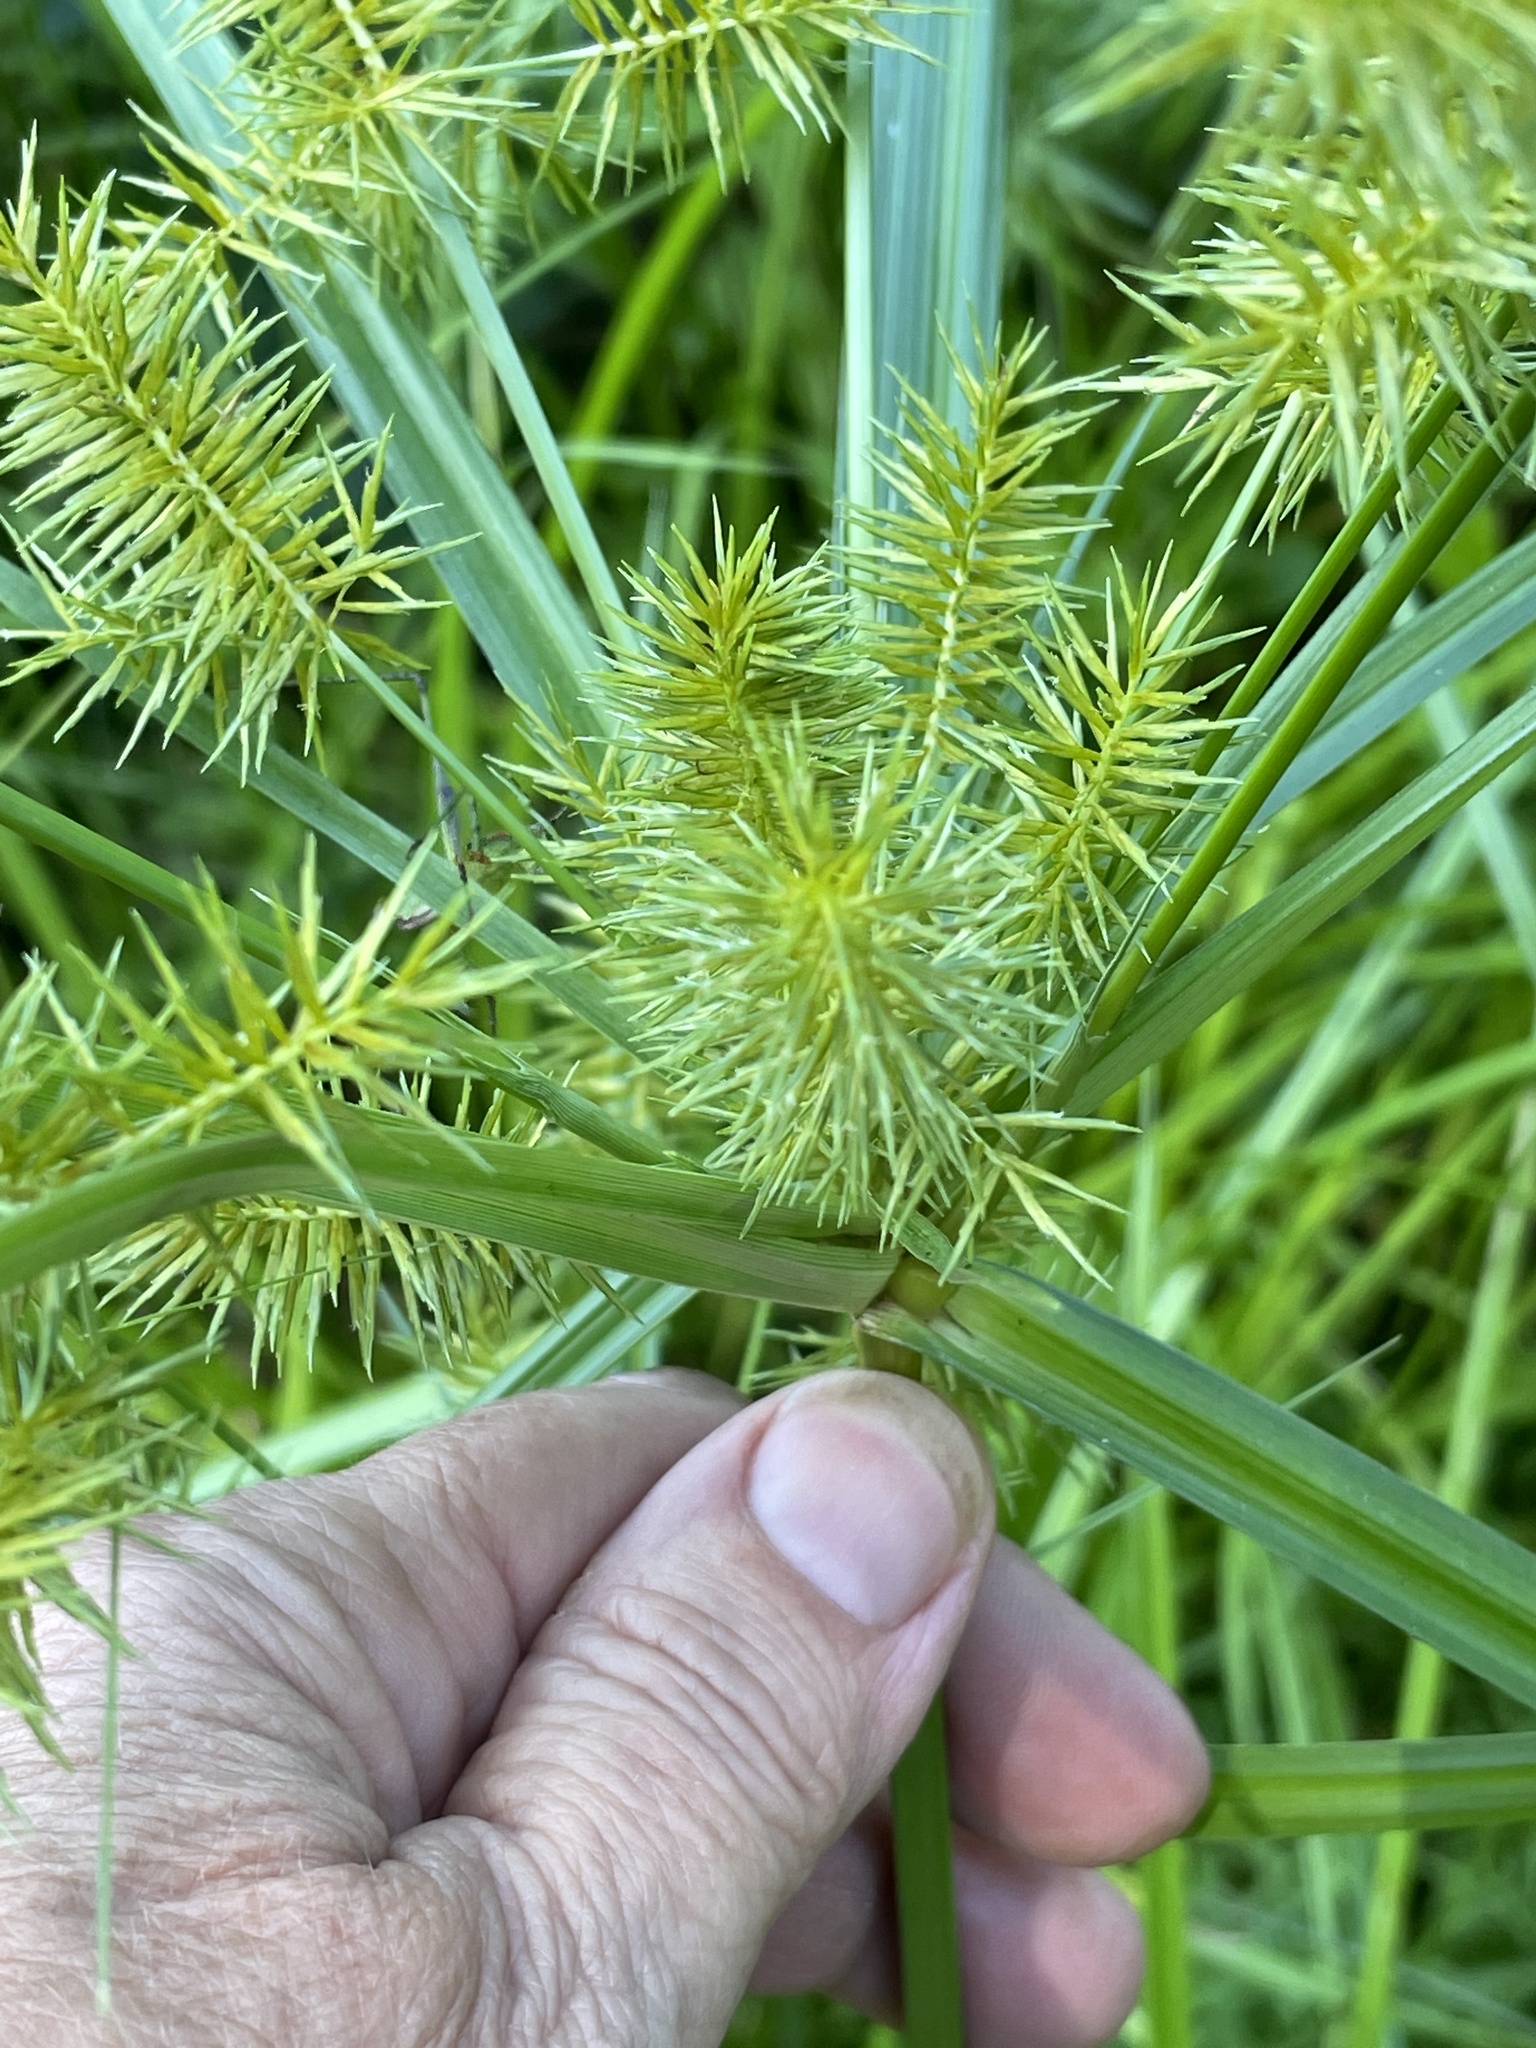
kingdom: Plantae
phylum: Tracheophyta
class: Liliopsida
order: Poales
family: Cyperaceae
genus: Cyperus
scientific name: Cyperus strigosus
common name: False nutsedge
